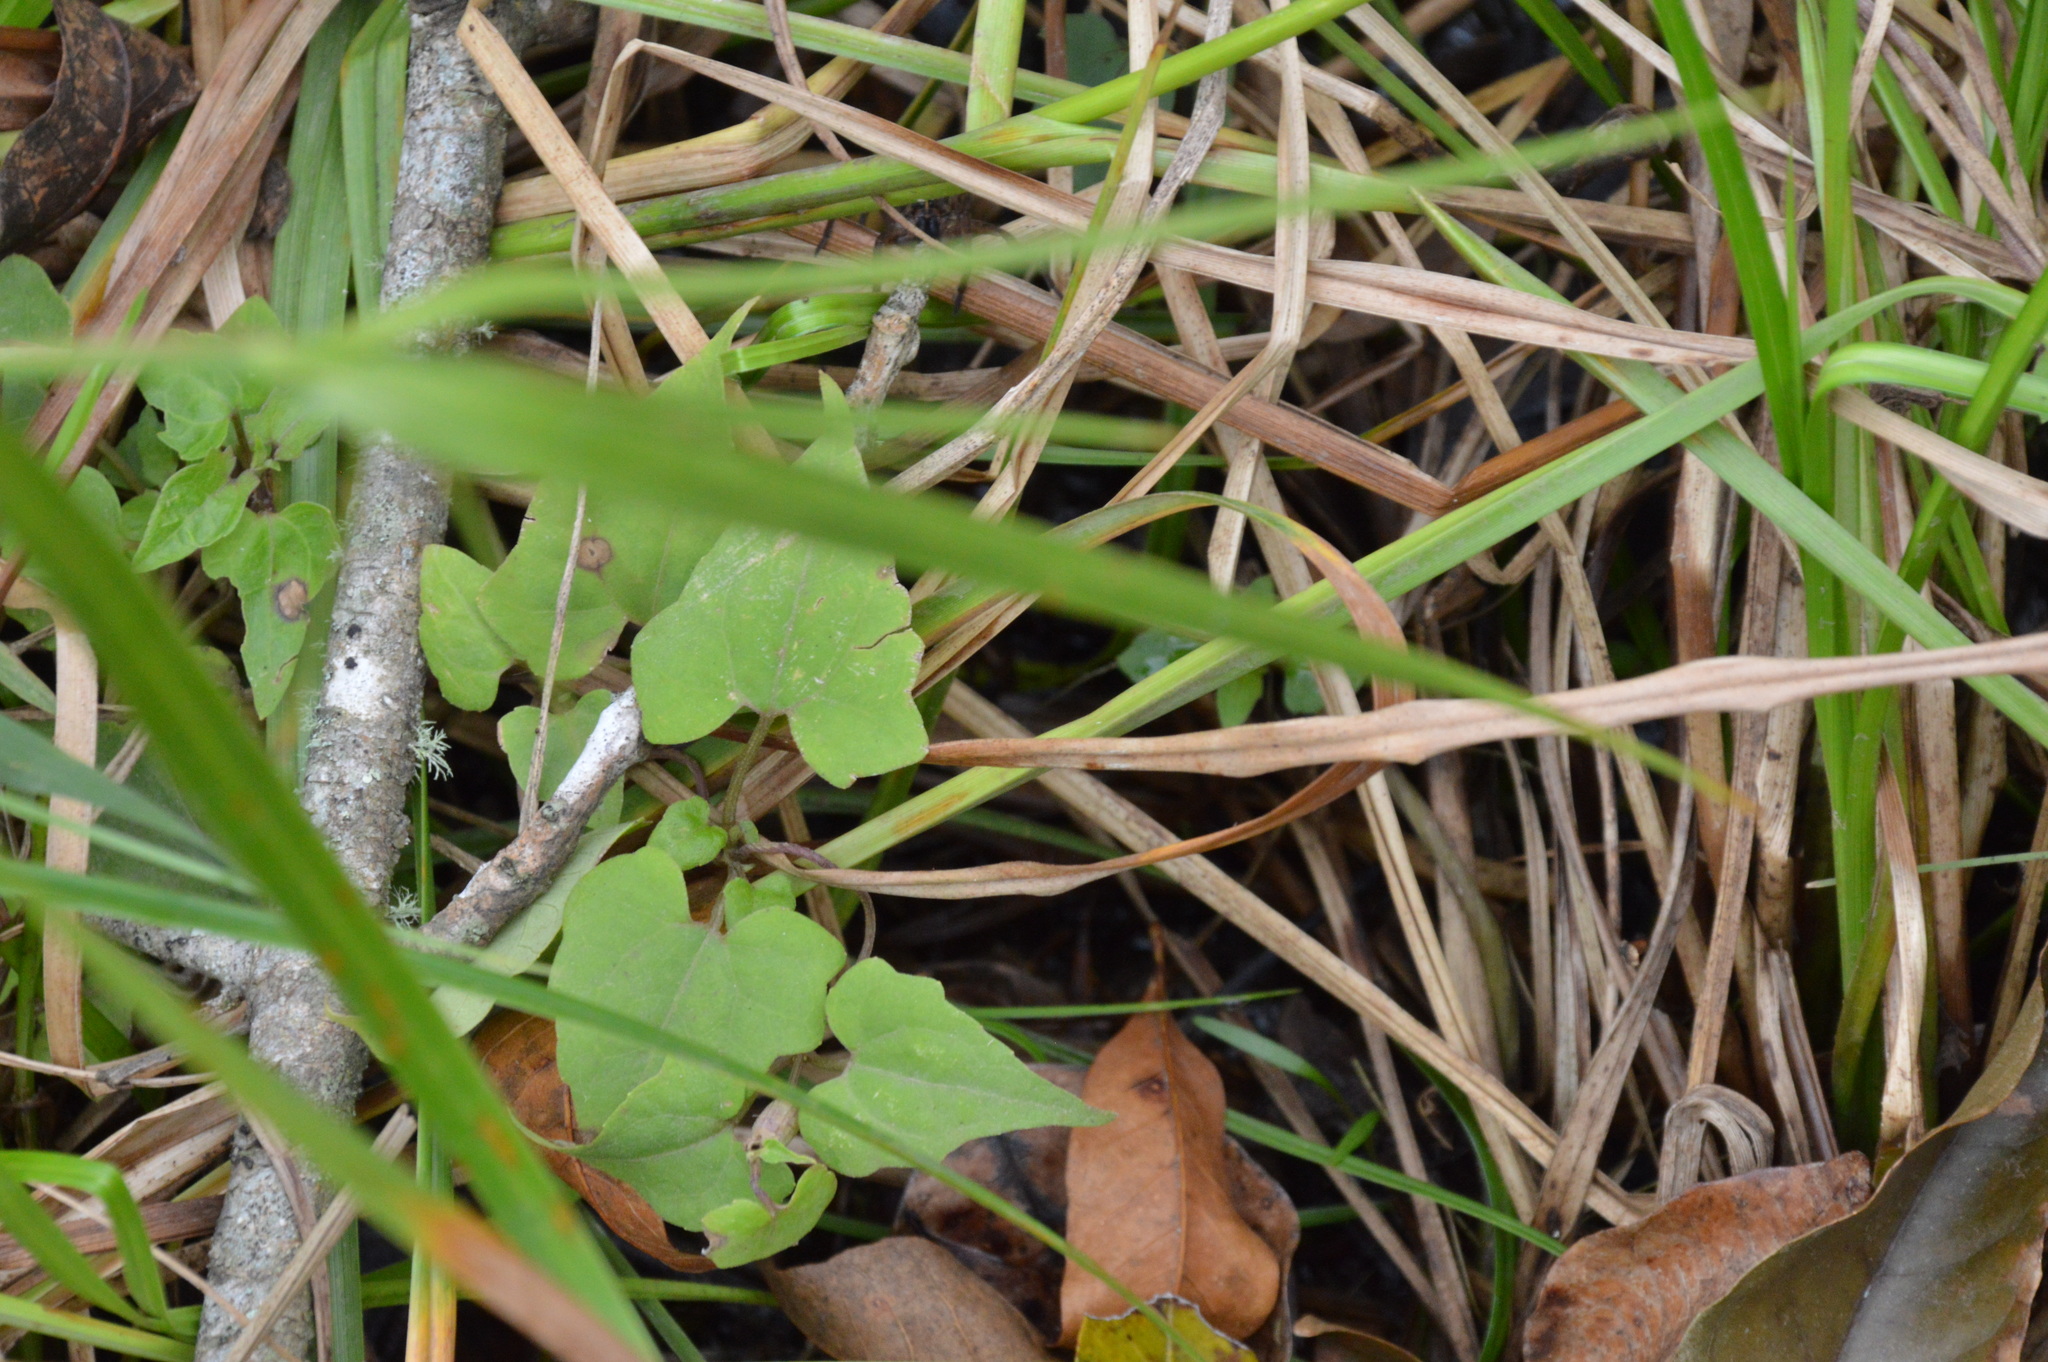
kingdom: Plantae
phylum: Tracheophyta
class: Magnoliopsida
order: Asterales
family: Asteraceae
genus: Mikania
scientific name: Mikania scandens
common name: Climbing hempvine
